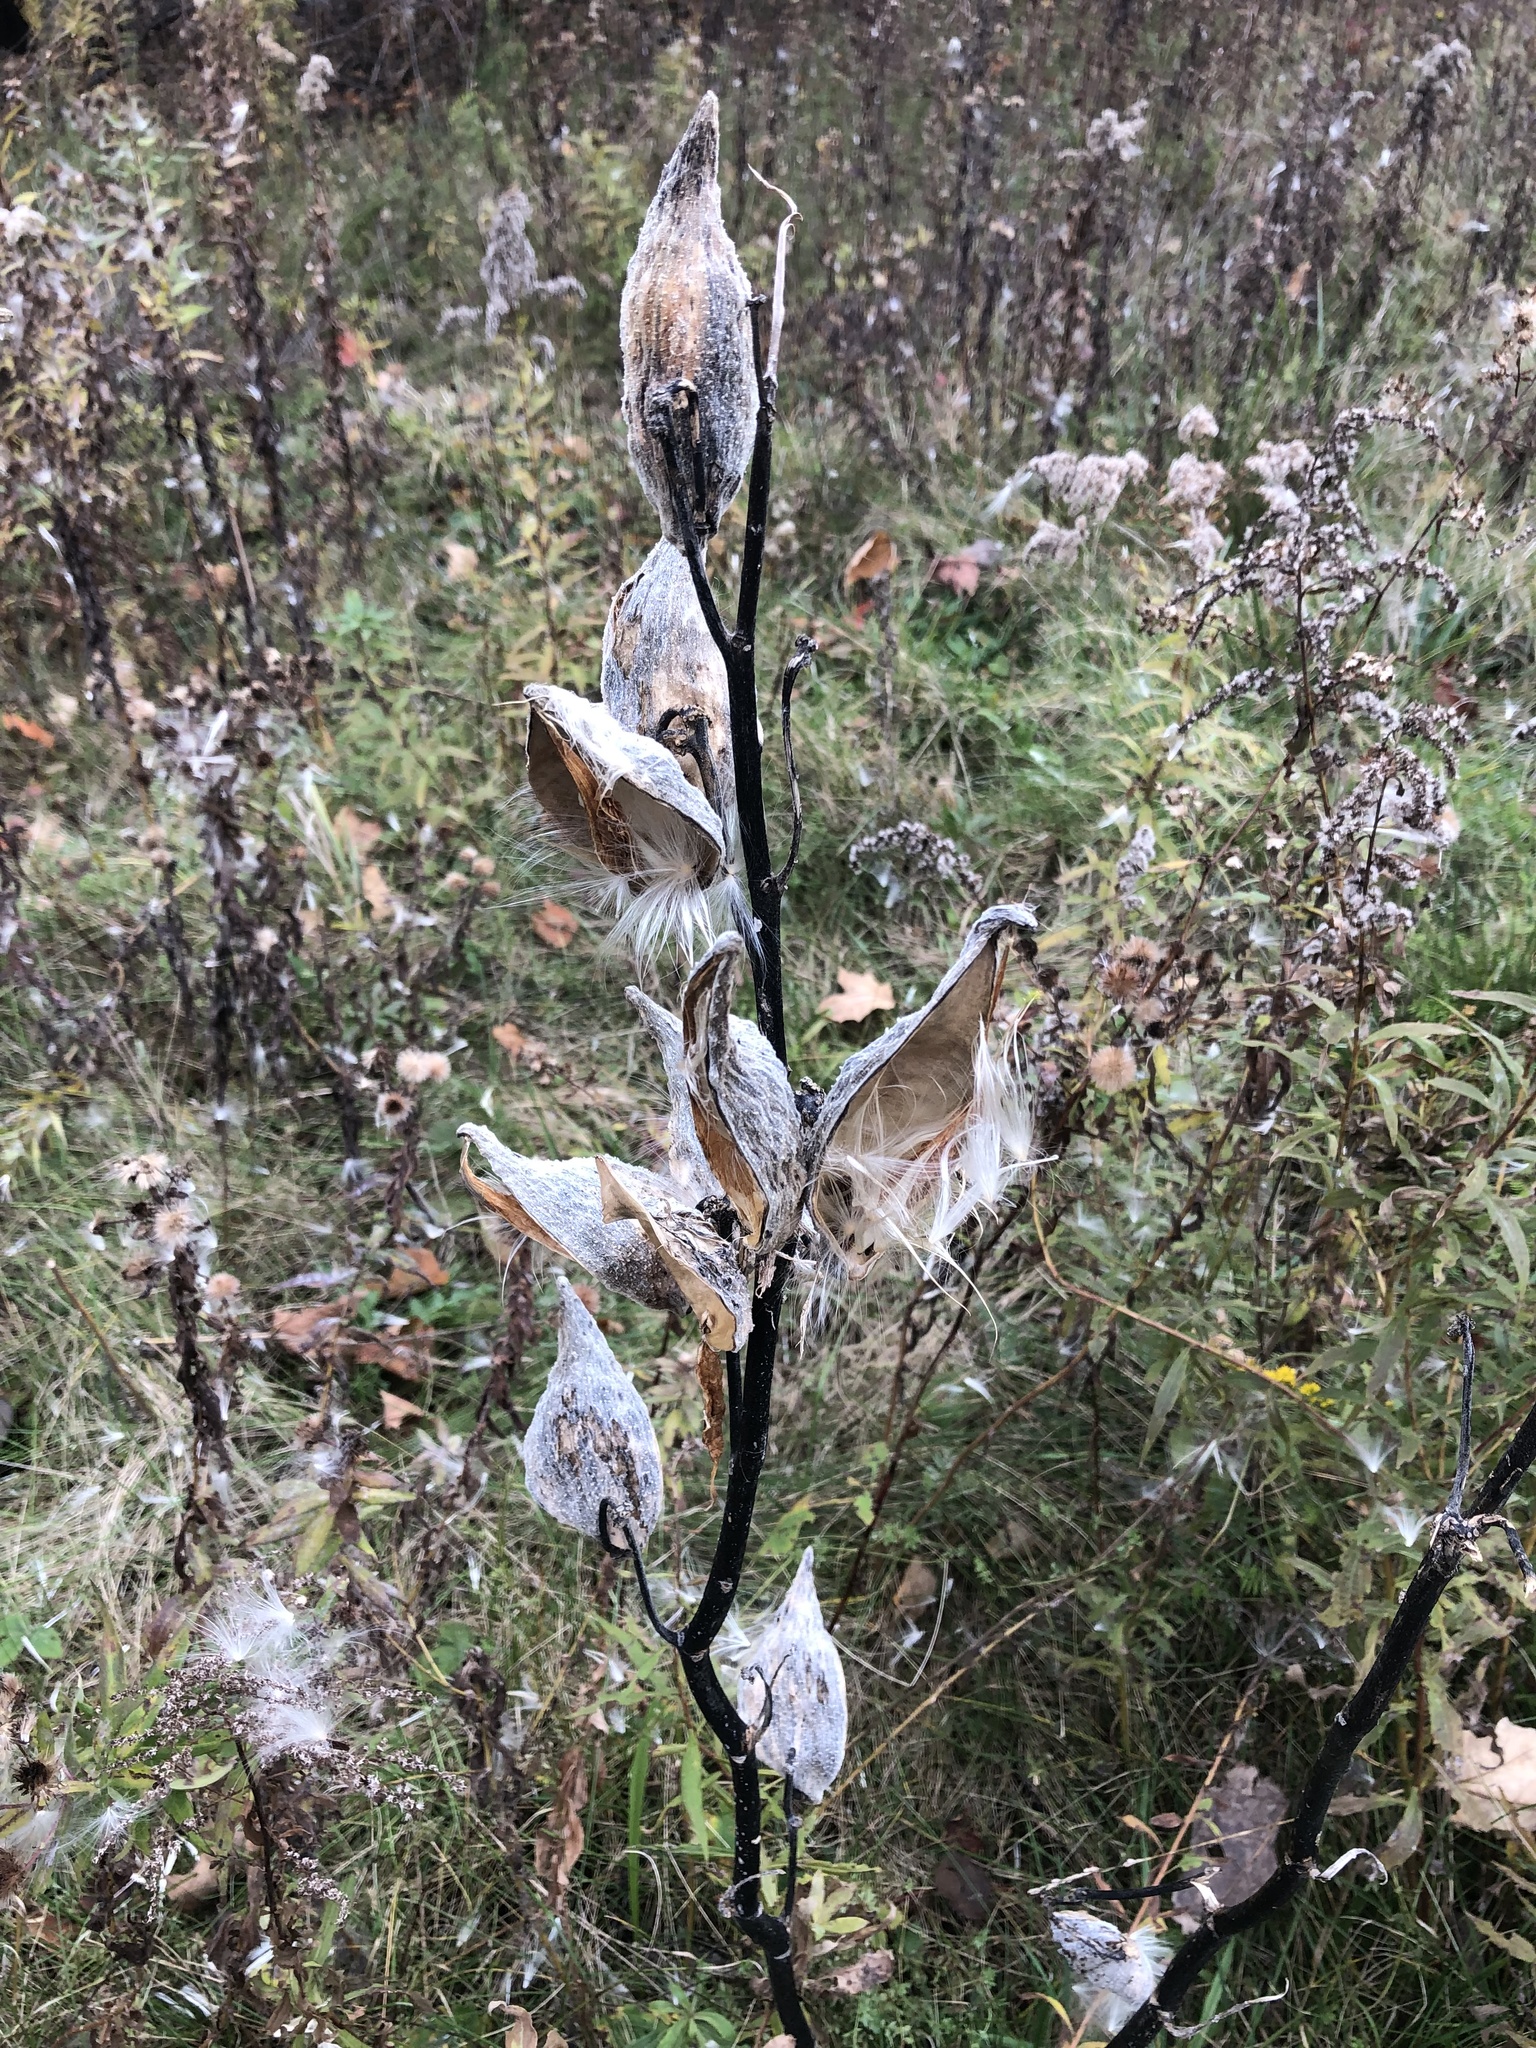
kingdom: Plantae
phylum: Tracheophyta
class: Magnoliopsida
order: Gentianales
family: Apocynaceae
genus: Asclepias
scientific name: Asclepias syriaca
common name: Common milkweed
